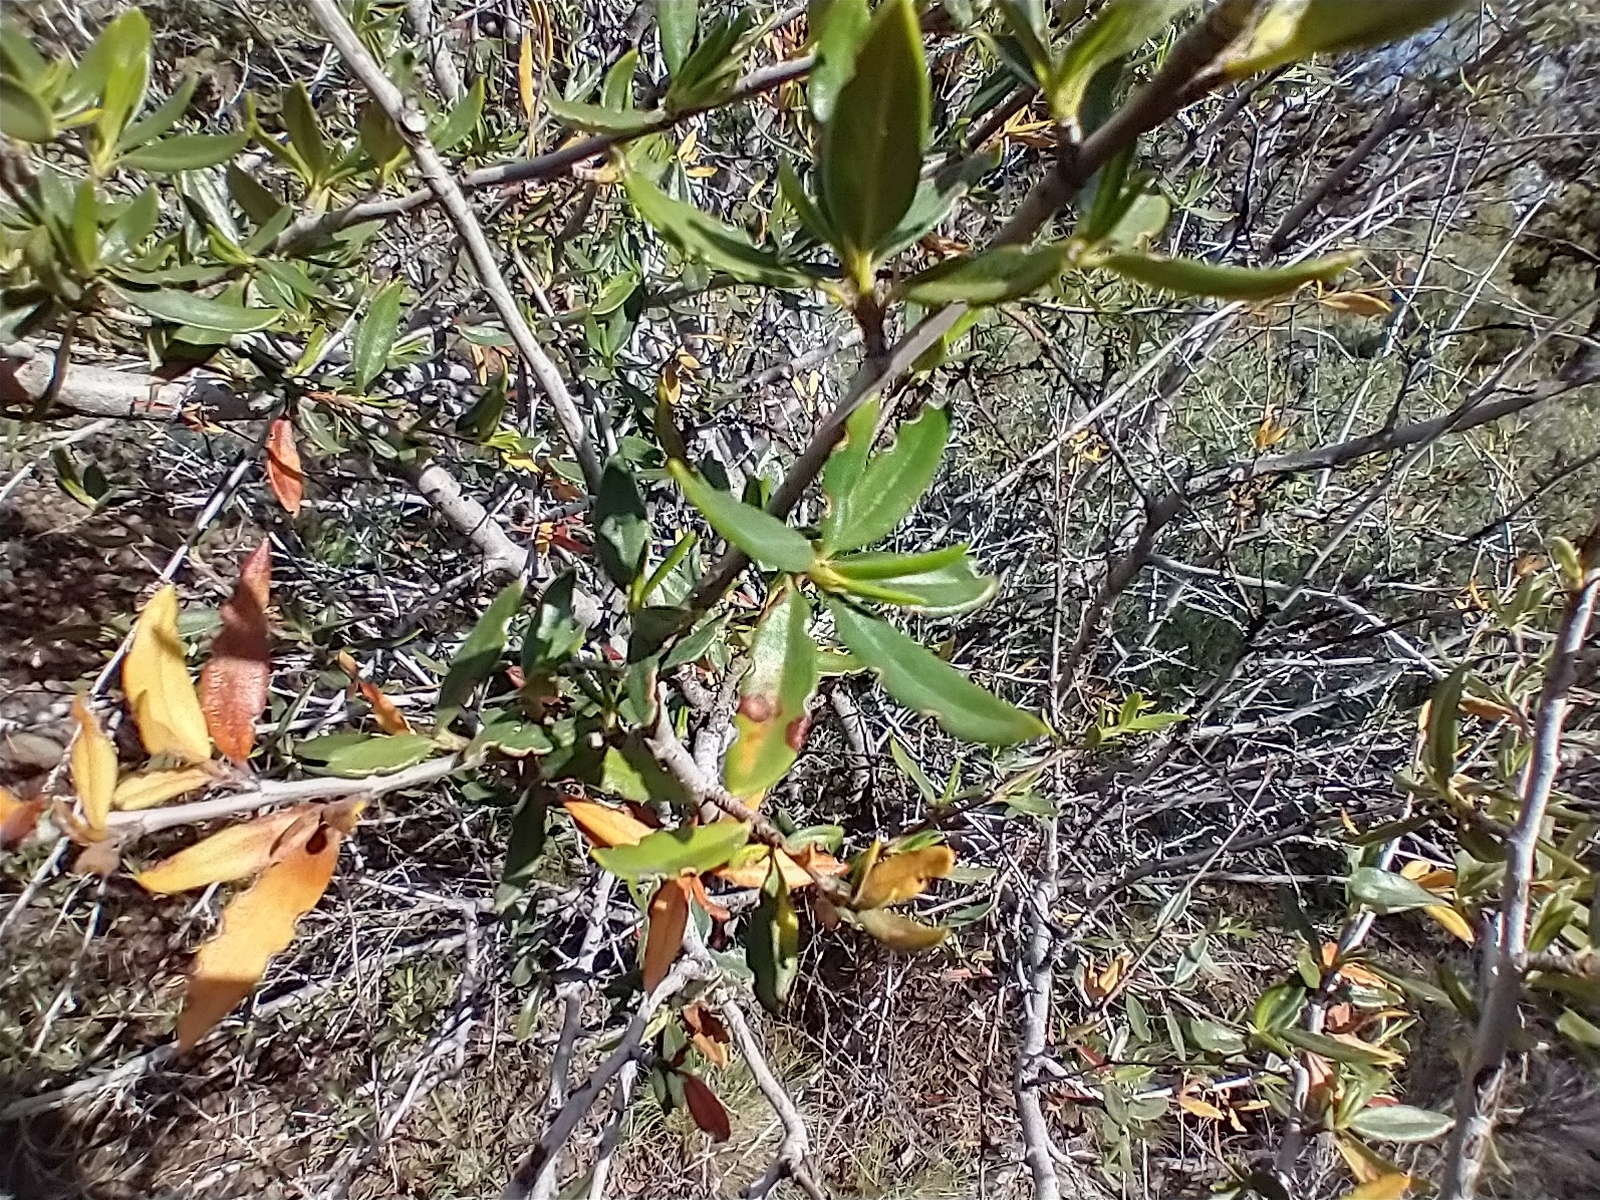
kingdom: Plantae
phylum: Tracheophyta
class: Magnoliopsida
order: Rosales
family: Rosaceae
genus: Cercocarpus
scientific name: Cercocarpus ledifolius
